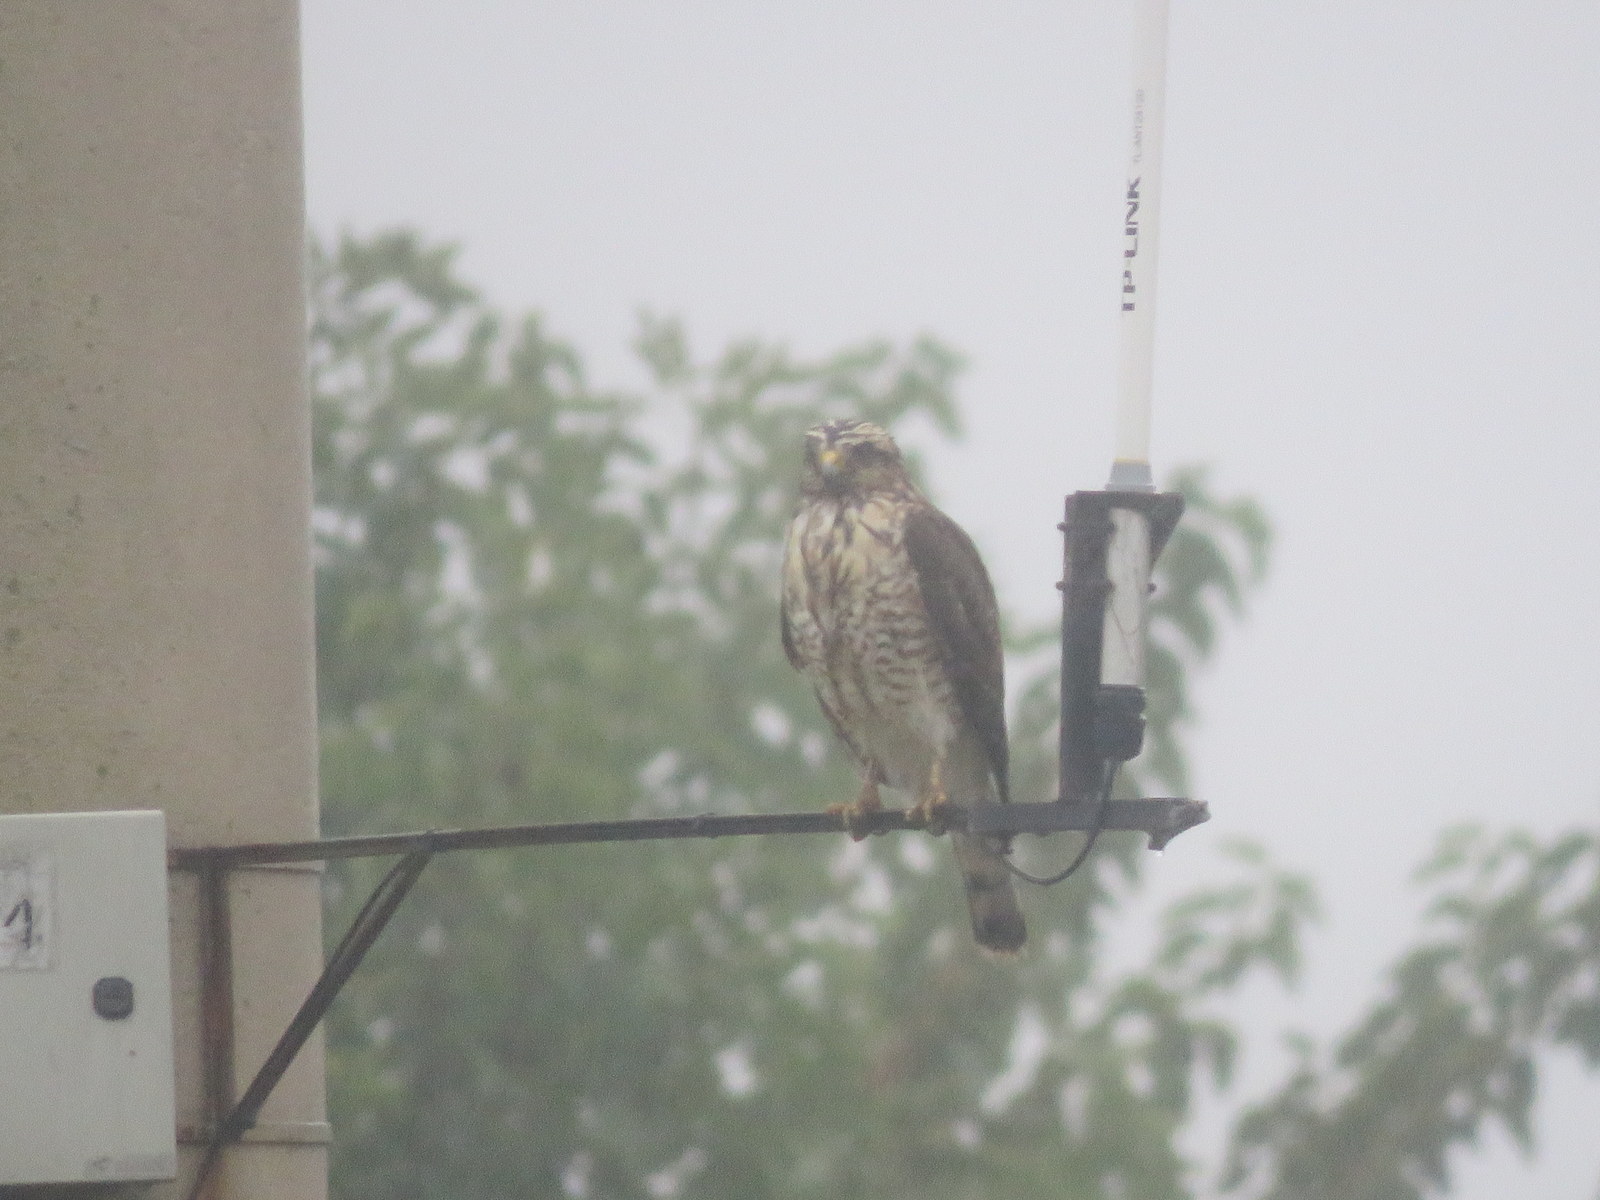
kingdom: Animalia
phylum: Chordata
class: Aves
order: Accipitriformes
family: Accipitridae
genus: Rupornis
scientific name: Rupornis magnirostris
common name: Roadside hawk
